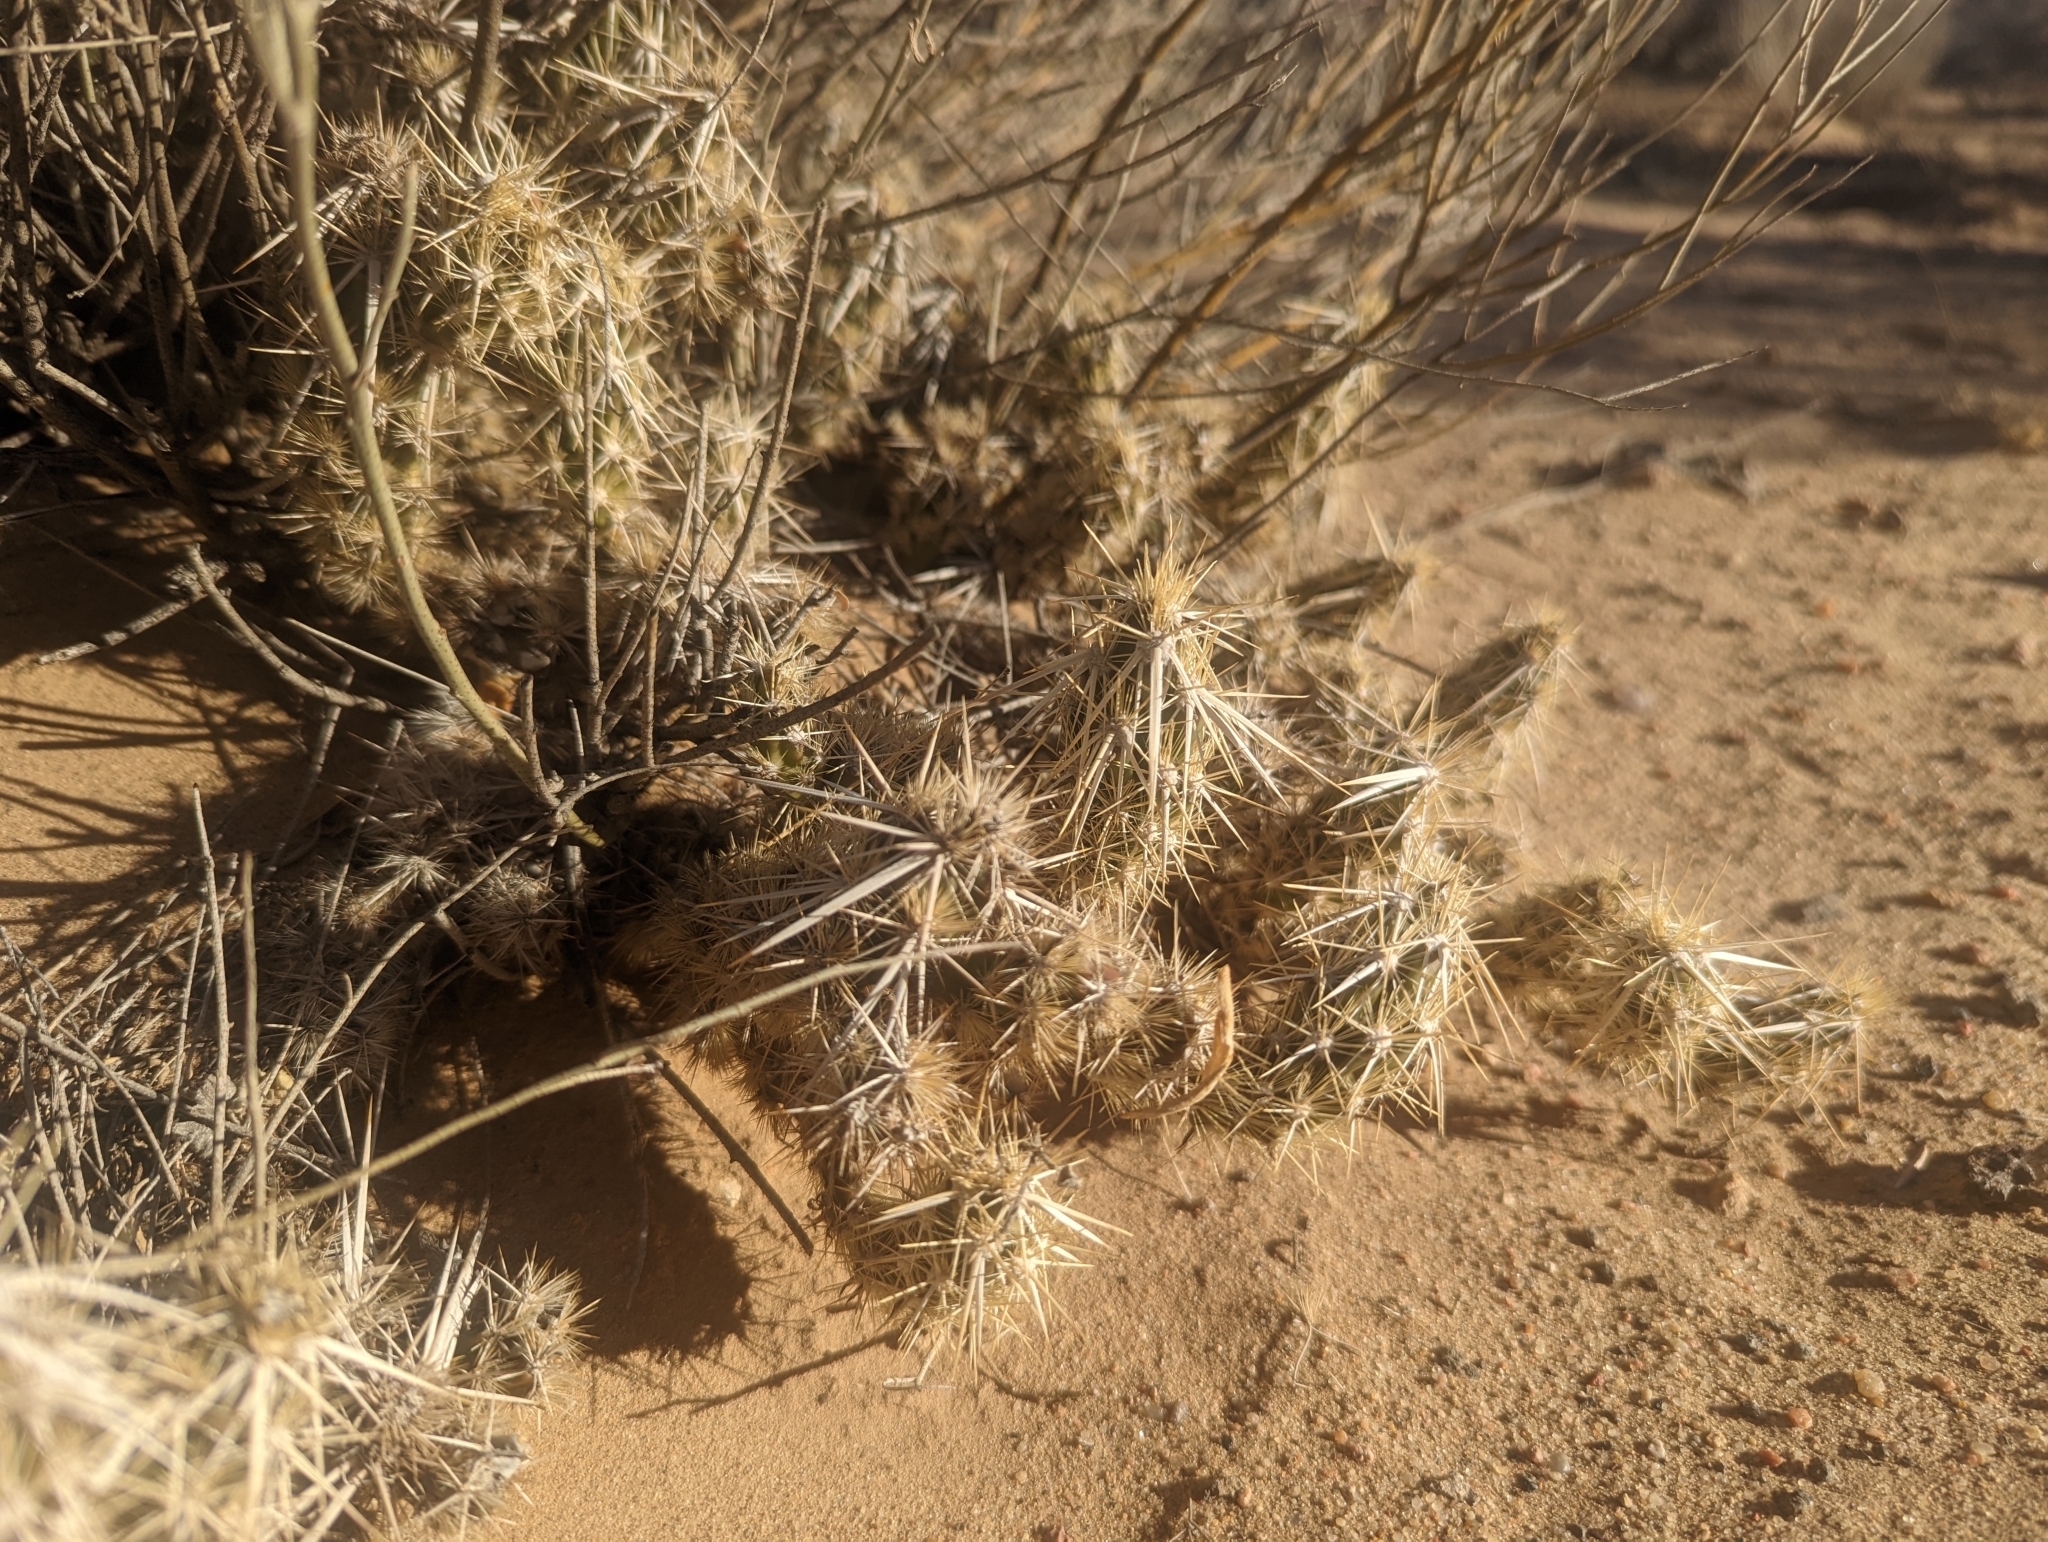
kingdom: Plantae
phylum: Tracheophyta
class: Magnoliopsida
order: Caryophyllales
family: Cactaceae
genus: Grusonia
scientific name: Grusonia clavata
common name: Club cholla
